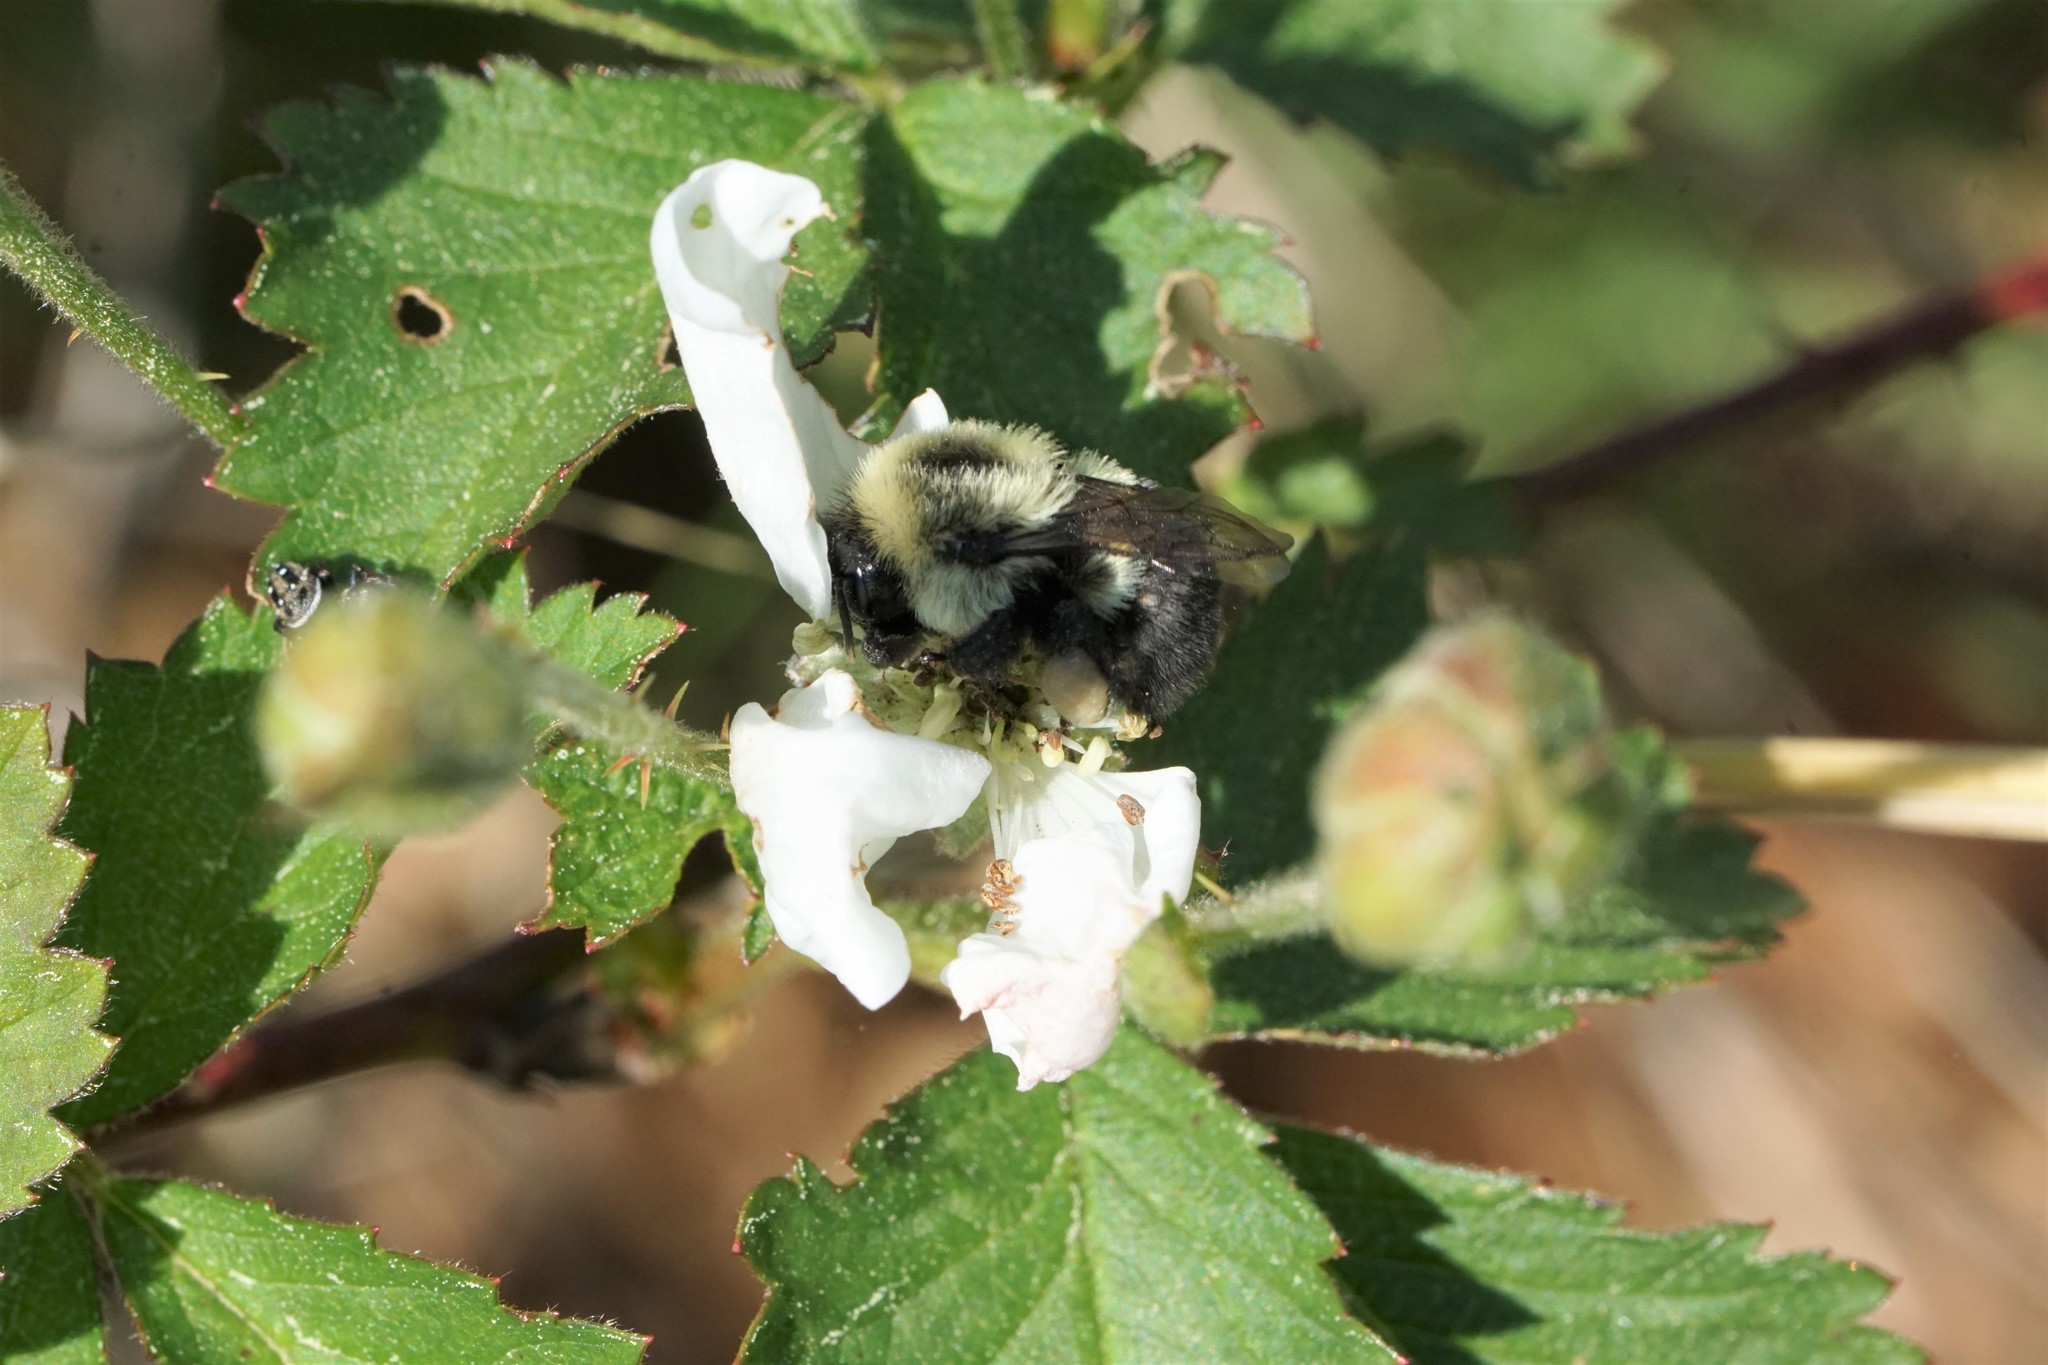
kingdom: Animalia
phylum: Arthropoda
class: Insecta
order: Hymenoptera
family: Apidae
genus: Bombus
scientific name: Bombus impatiens
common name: Common eastern bumble bee
